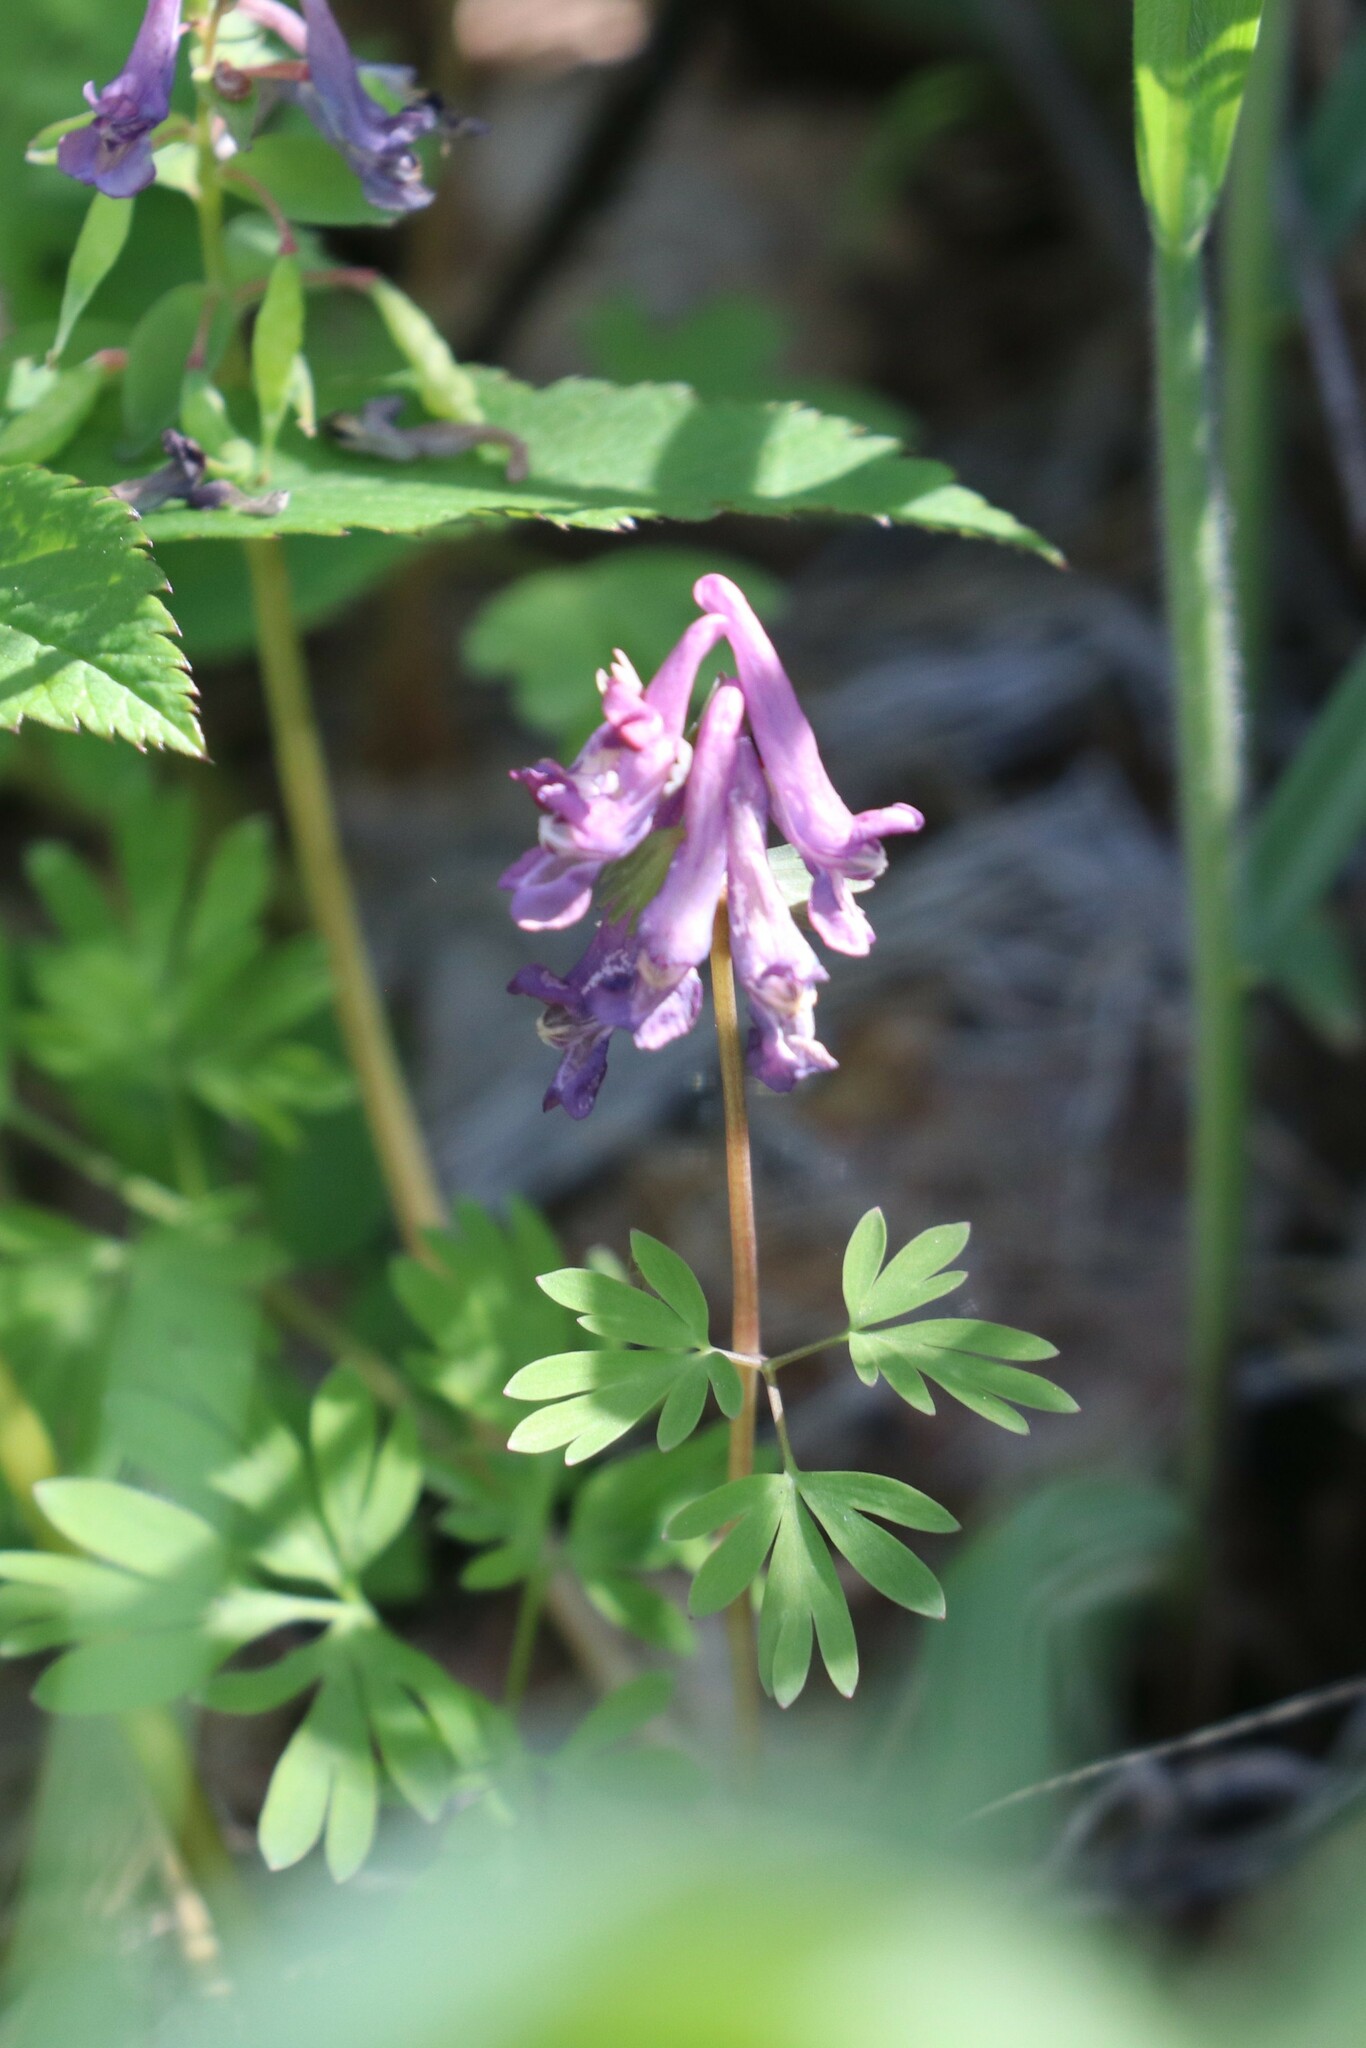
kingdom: Plantae
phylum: Tracheophyta
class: Magnoliopsida
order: Ranunculales
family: Papaveraceae
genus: Corydalis
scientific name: Corydalis solida
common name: Bird-in-a-bush
